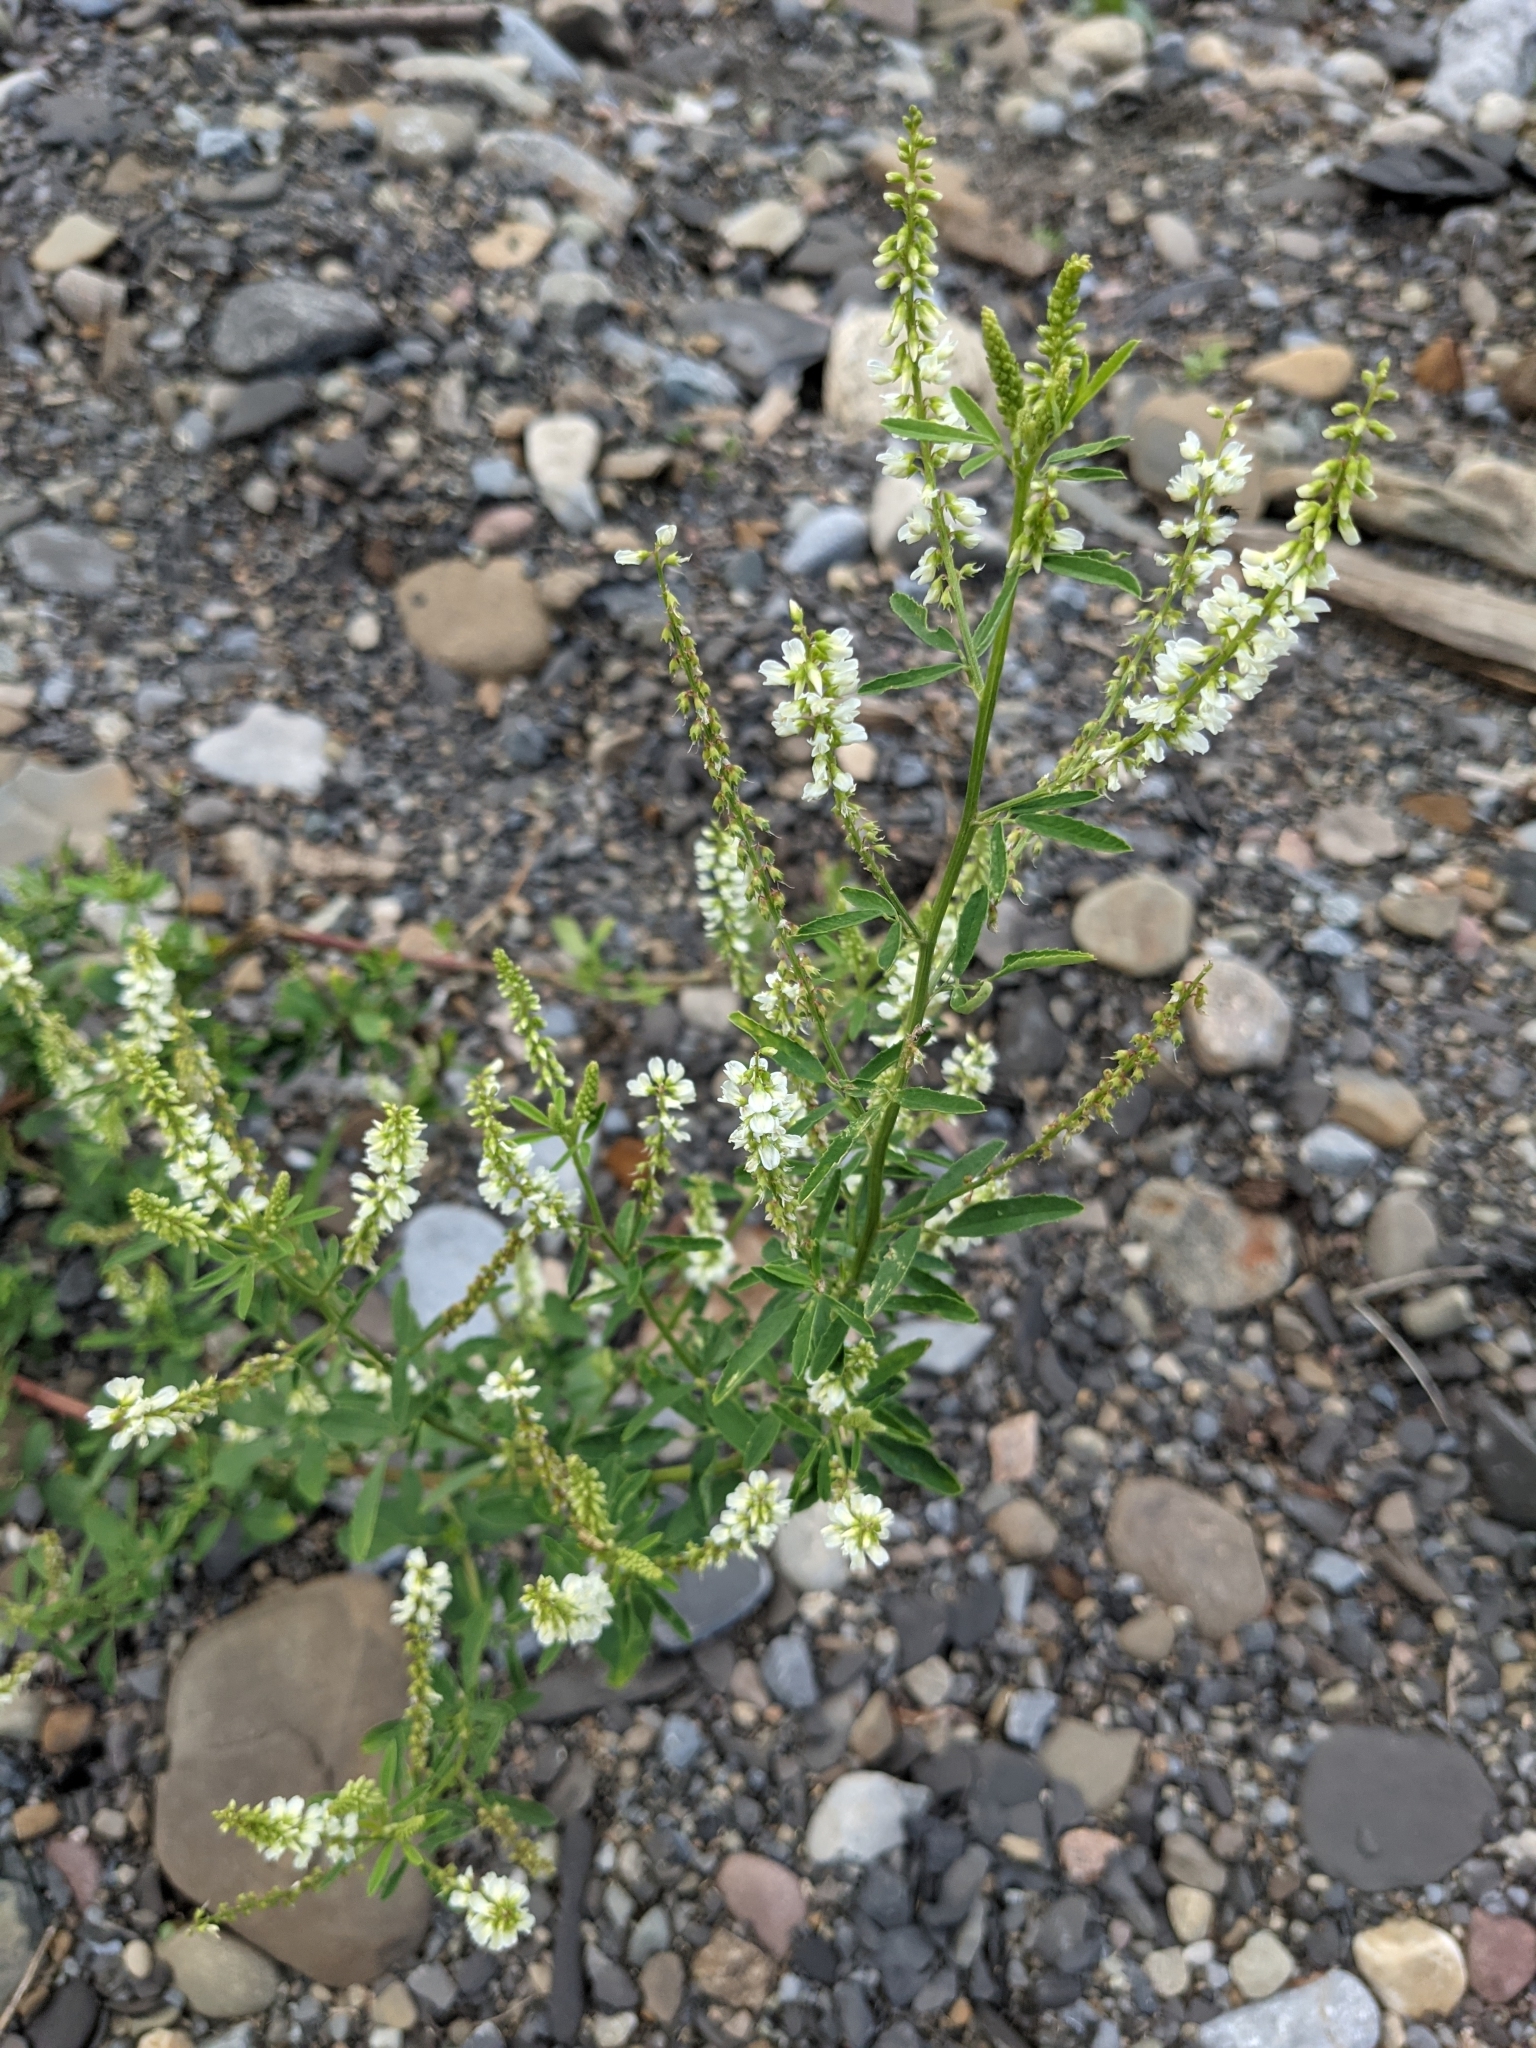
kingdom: Plantae
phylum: Tracheophyta
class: Magnoliopsida
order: Fabales
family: Fabaceae
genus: Melilotus
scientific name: Melilotus albus
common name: White melilot
